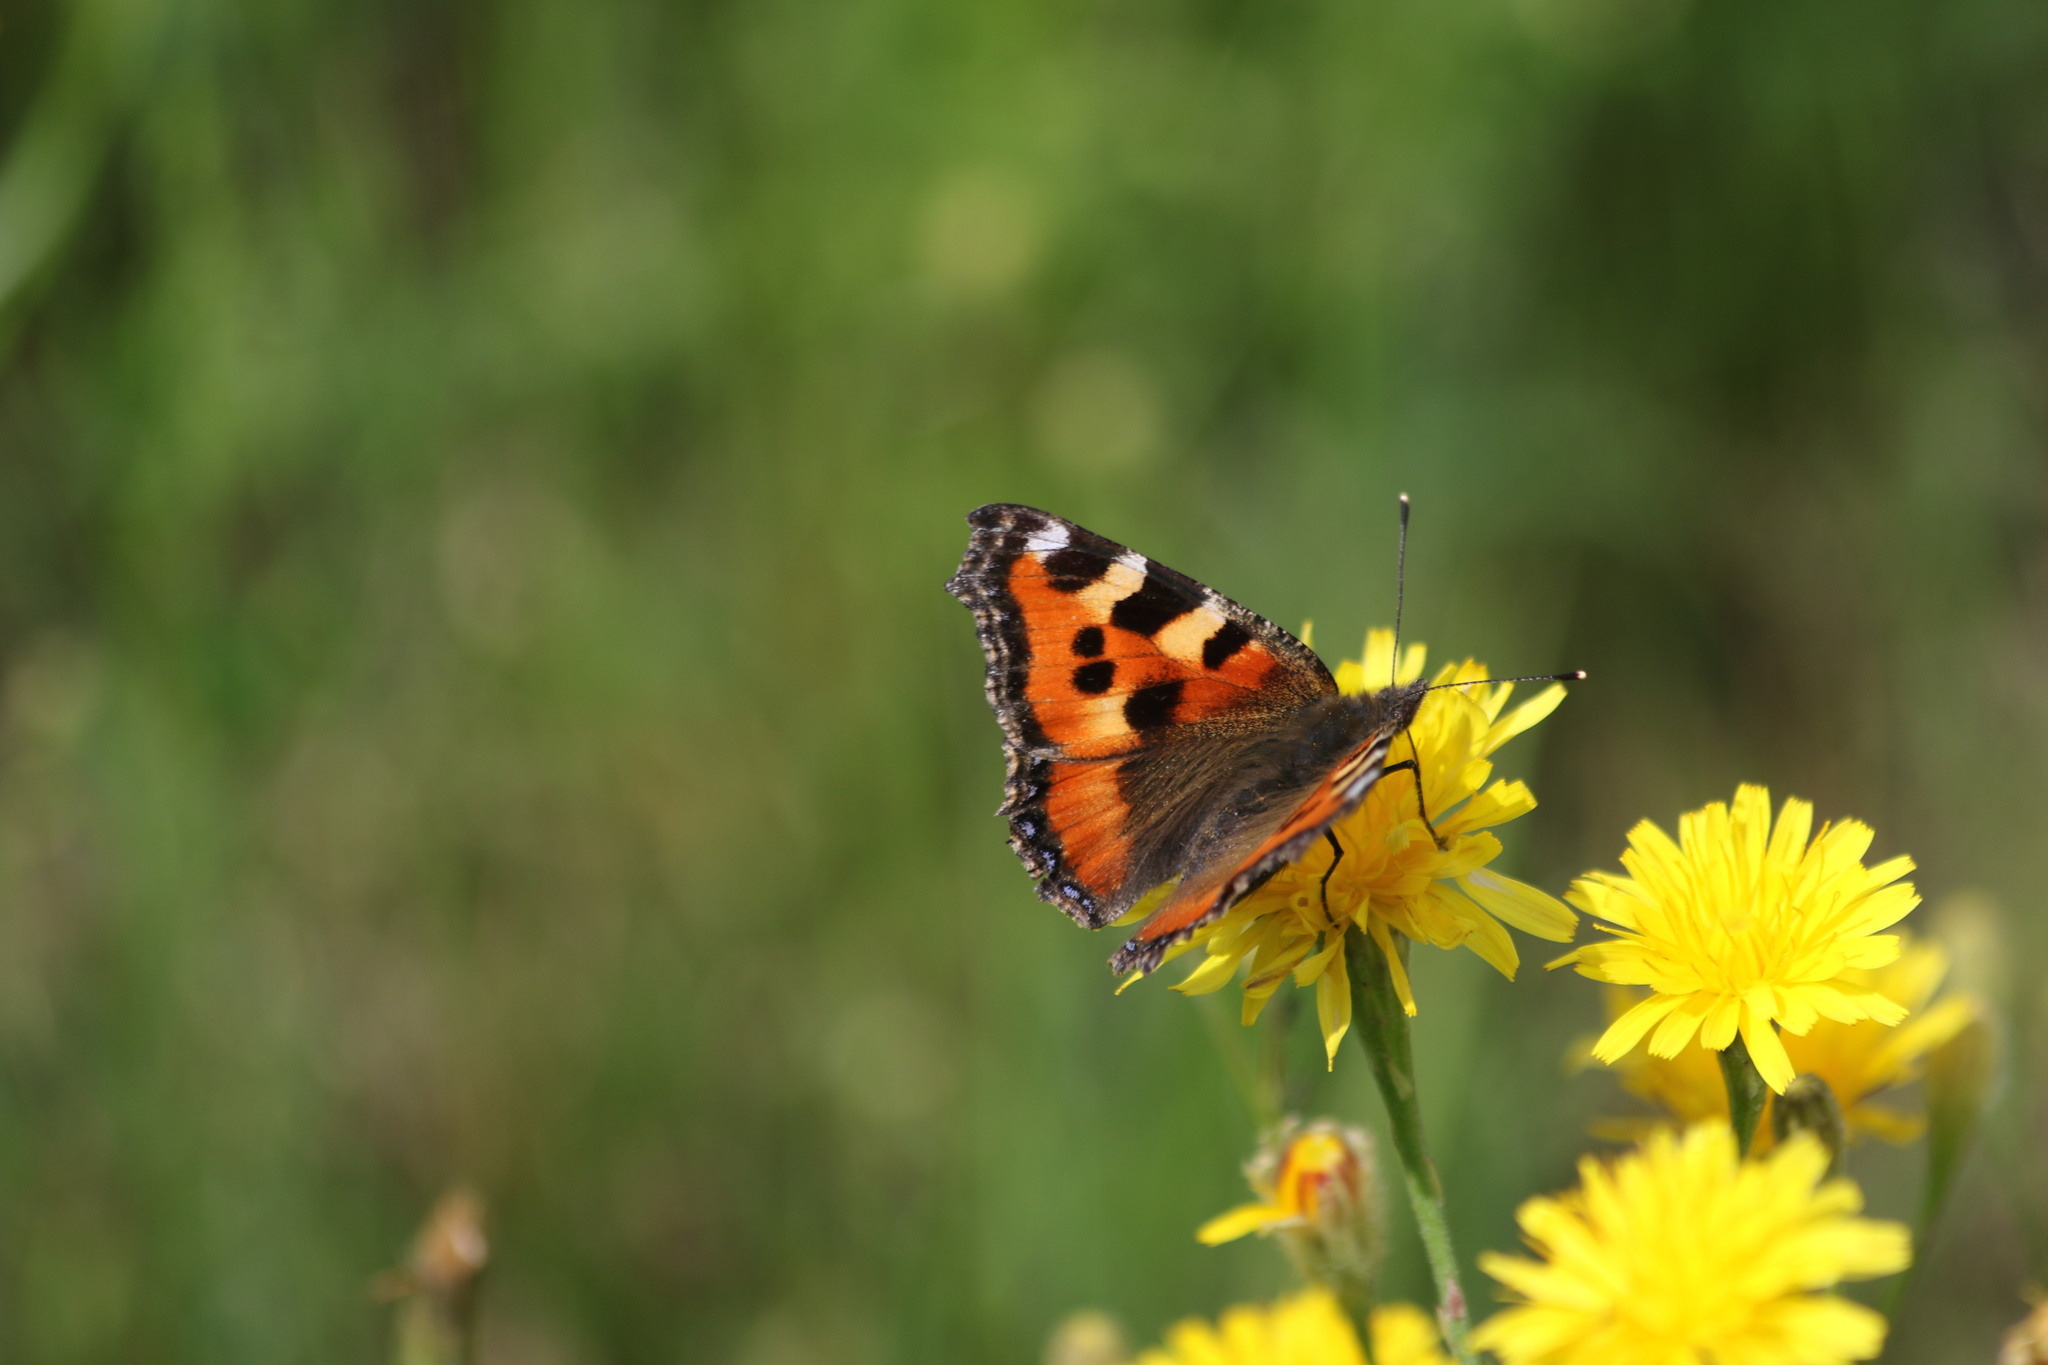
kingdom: Animalia
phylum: Arthropoda
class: Insecta
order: Lepidoptera
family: Nymphalidae
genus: Aglais
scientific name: Aglais urticae
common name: Small tortoiseshell
